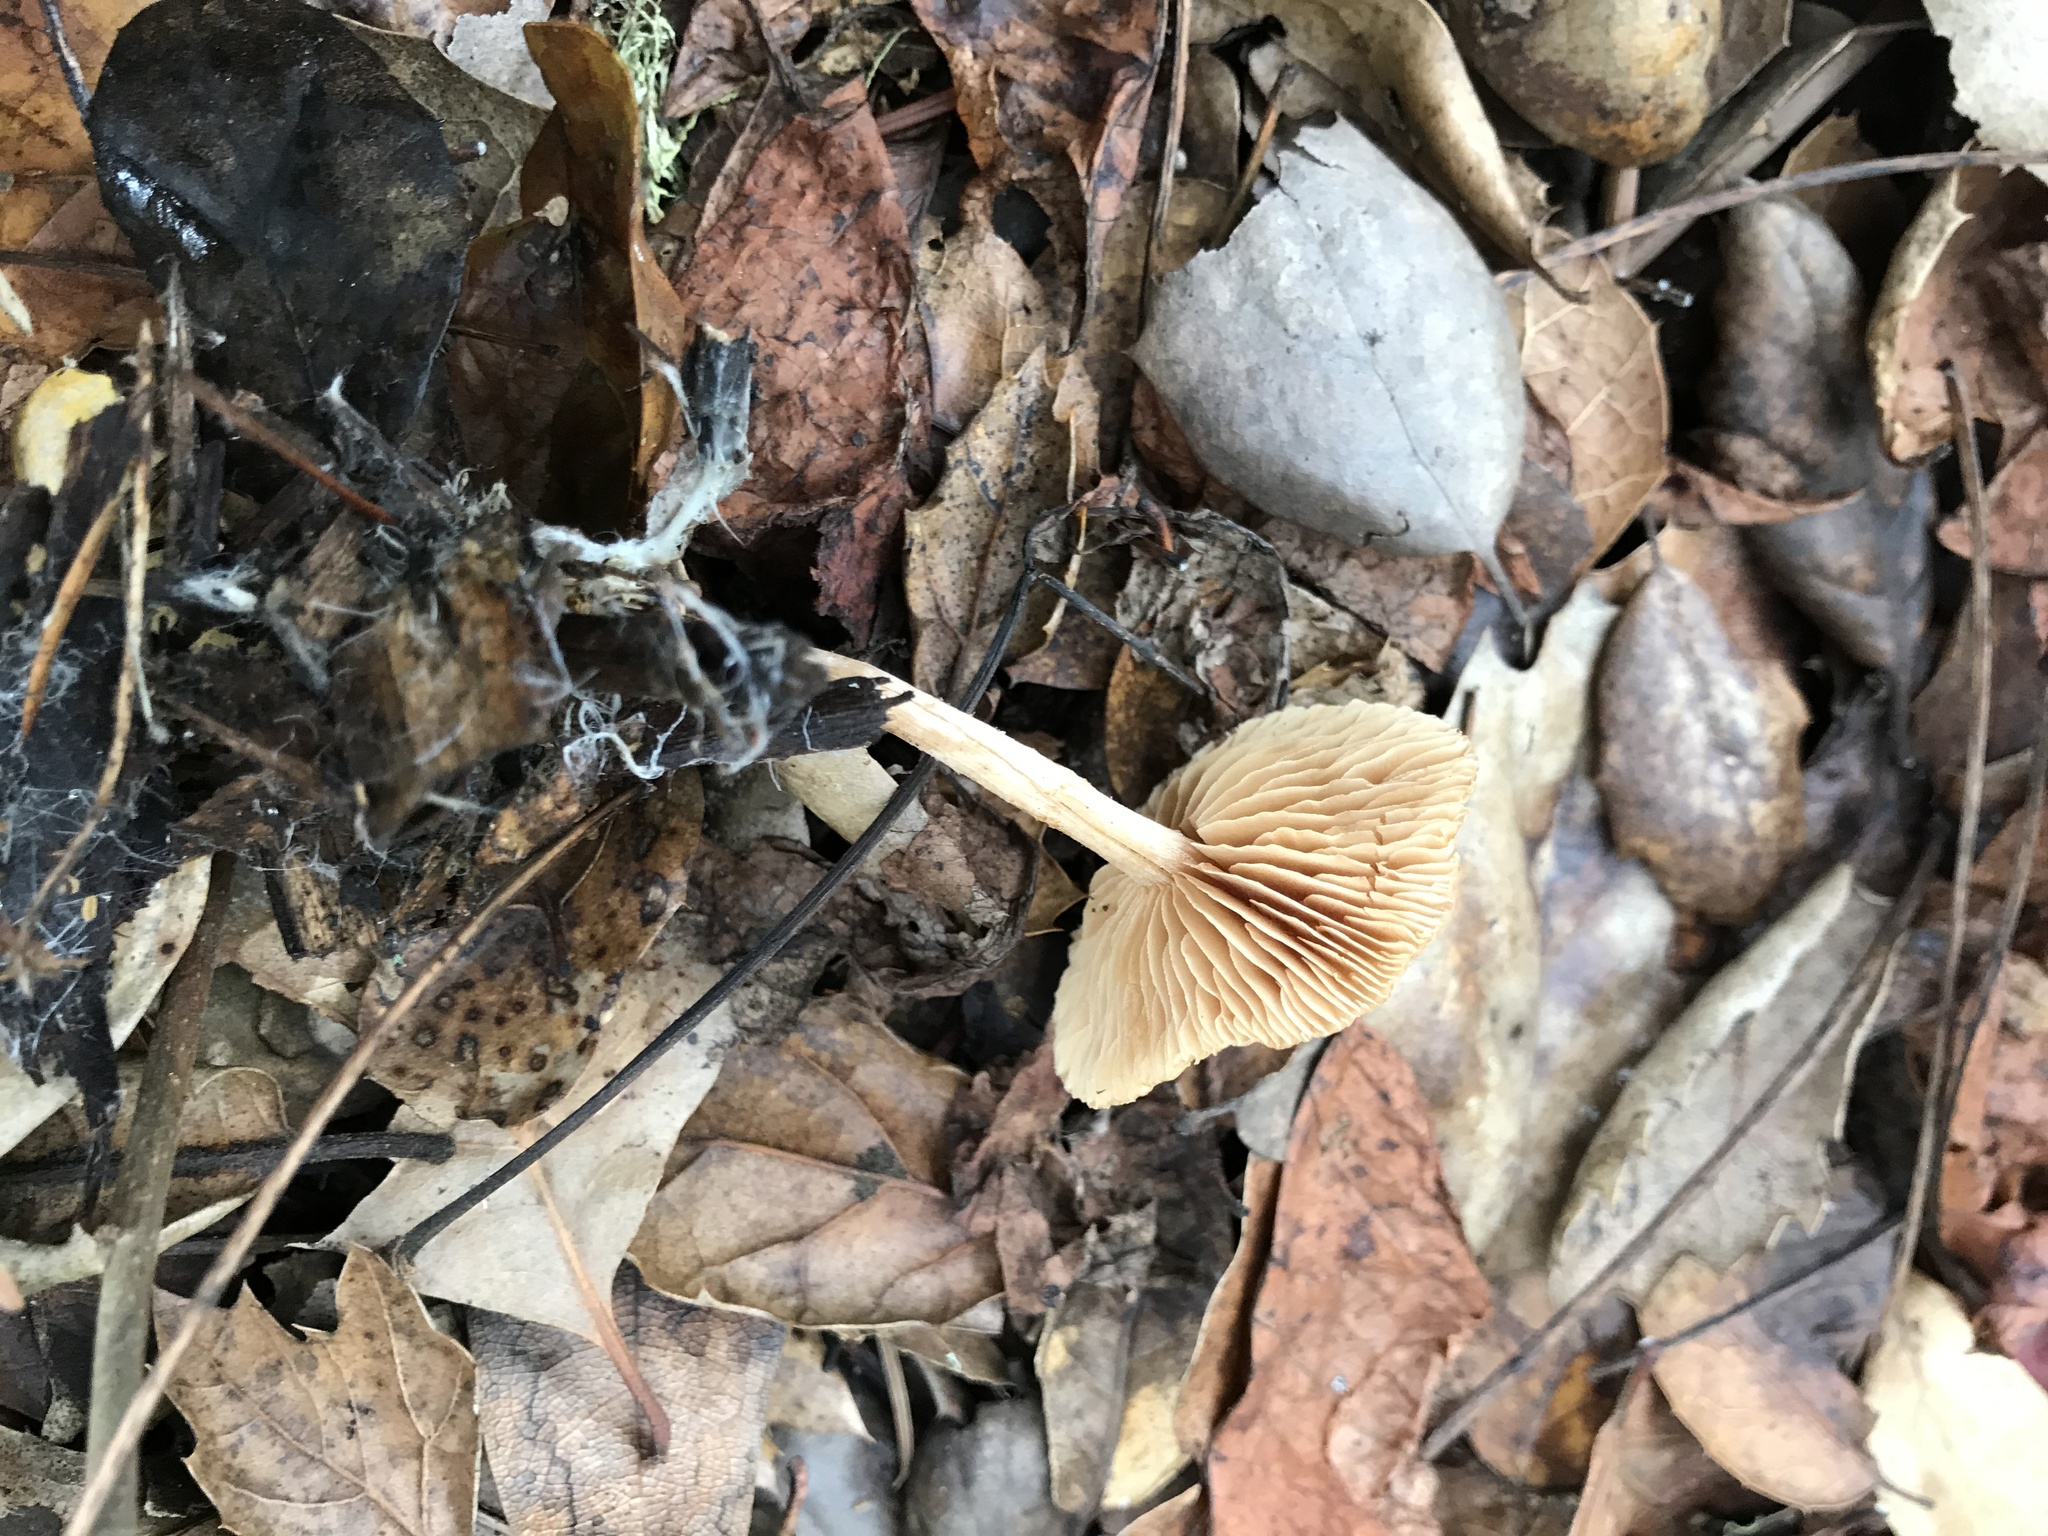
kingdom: Fungi
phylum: Basidiomycota
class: Agaricomycetes
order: Agaricales
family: Tubariaceae
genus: Tubaria
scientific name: Tubaria furfuracea
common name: Scurfy twiglet
